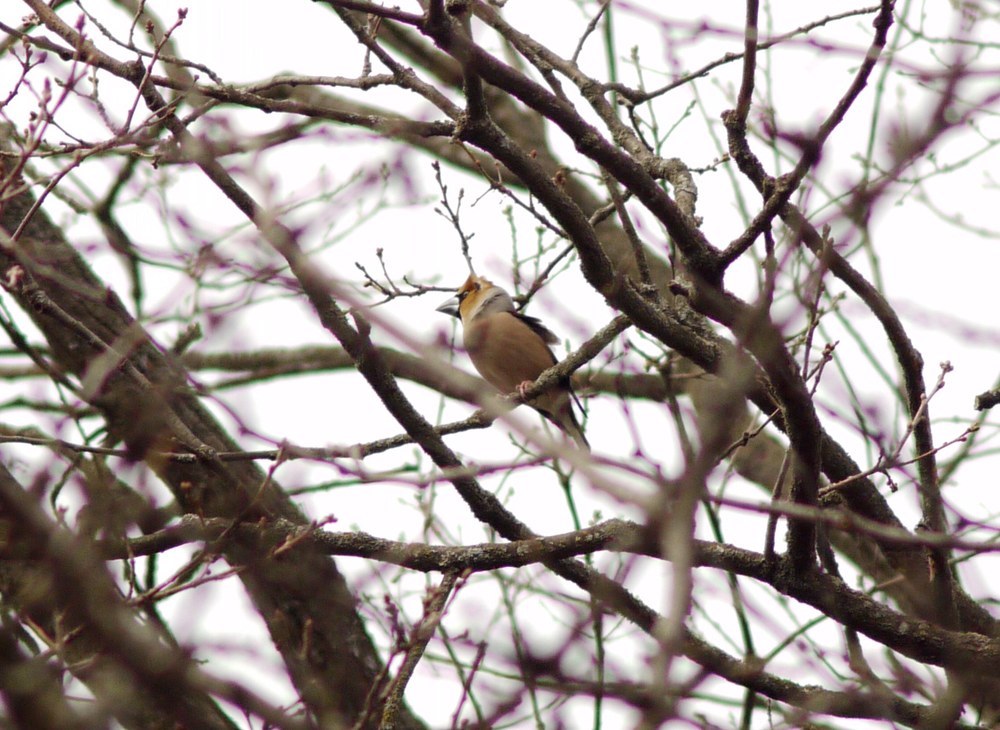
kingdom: Animalia
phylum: Chordata
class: Aves
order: Passeriformes
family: Fringillidae
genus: Coccothraustes
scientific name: Coccothraustes coccothraustes
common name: Hawfinch
